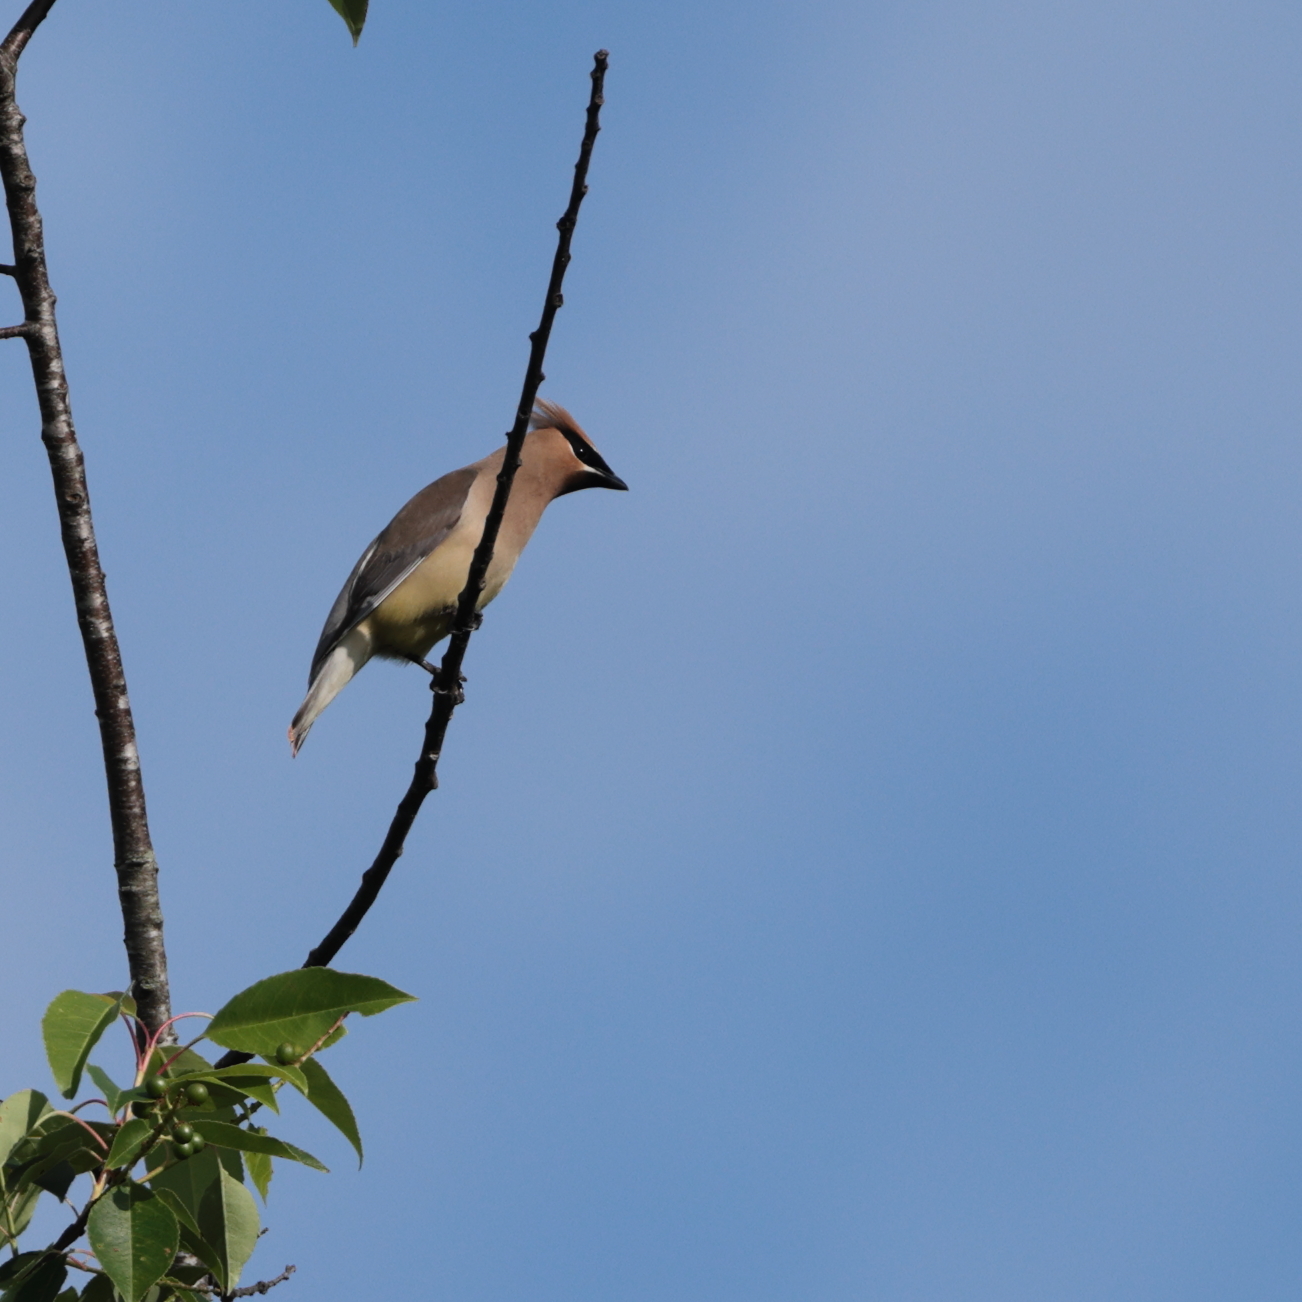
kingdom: Animalia
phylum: Chordata
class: Aves
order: Passeriformes
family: Bombycillidae
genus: Bombycilla
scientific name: Bombycilla cedrorum
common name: Cedar waxwing
